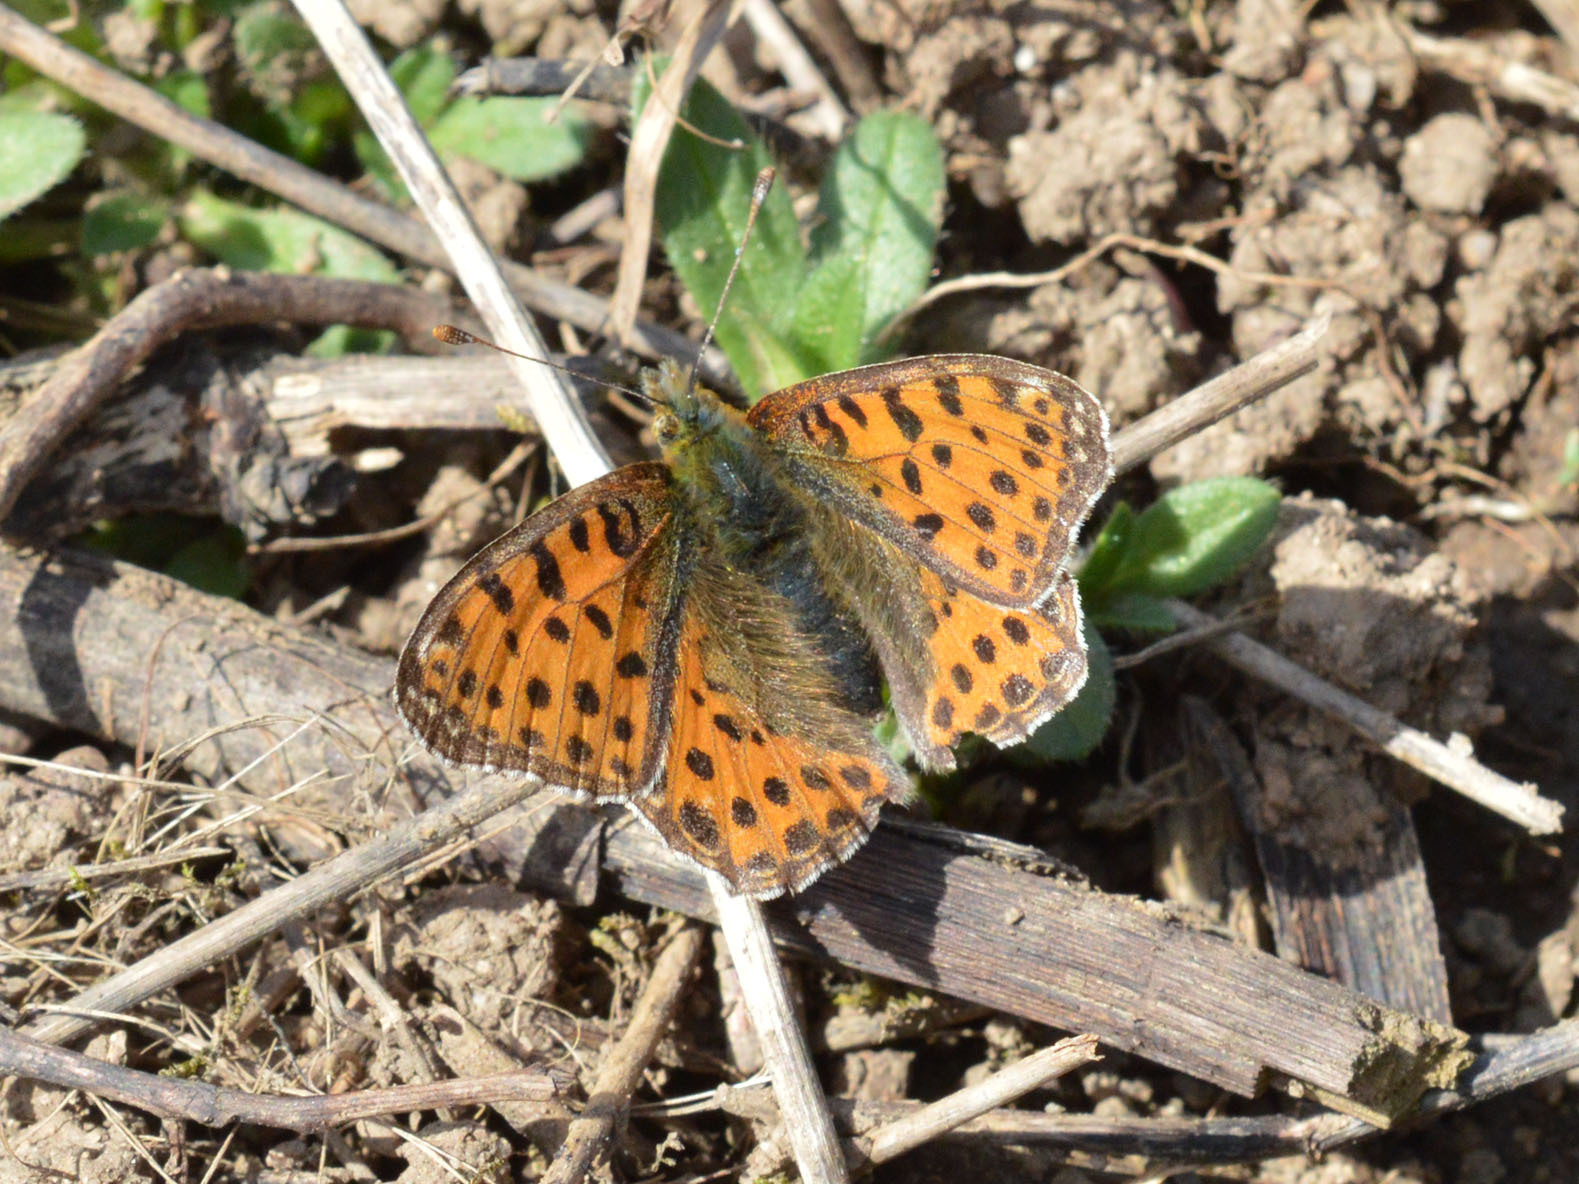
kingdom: Animalia
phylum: Arthropoda
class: Insecta
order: Lepidoptera
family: Nymphalidae
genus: Issoria
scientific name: Issoria lathonia
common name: Queen of spain fritillary
